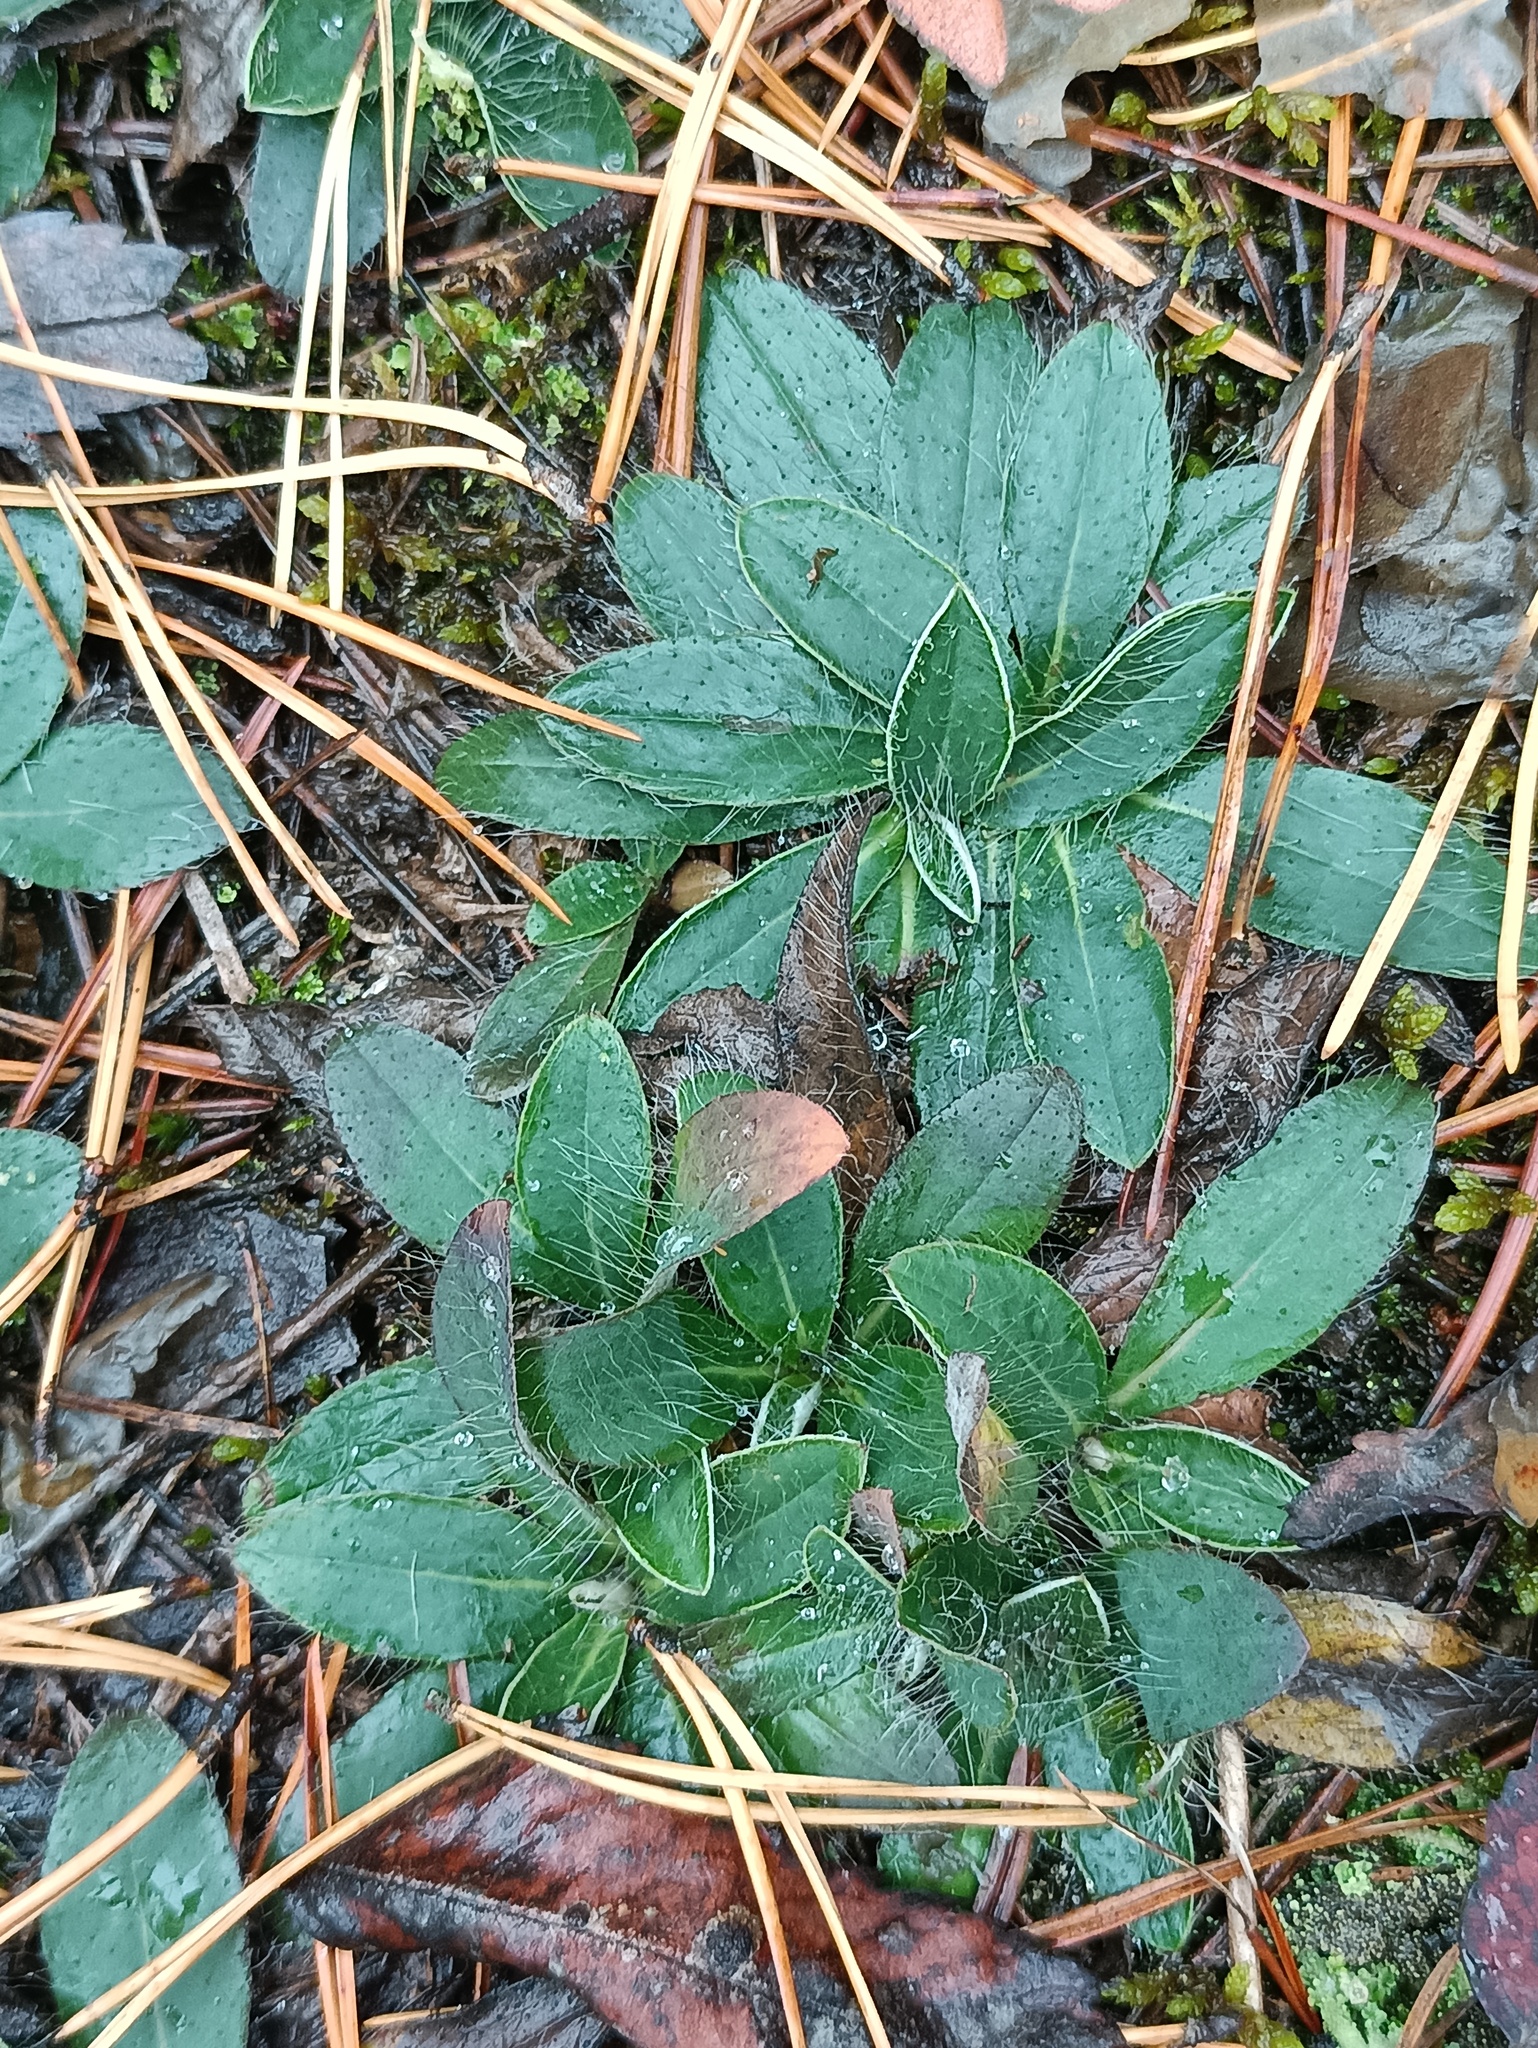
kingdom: Plantae
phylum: Tracheophyta
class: Magnoliopsida
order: Asterales
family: Asteraceae
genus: Pilosella
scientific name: Pilosella officinarum
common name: Mouse-ear hawkweed
